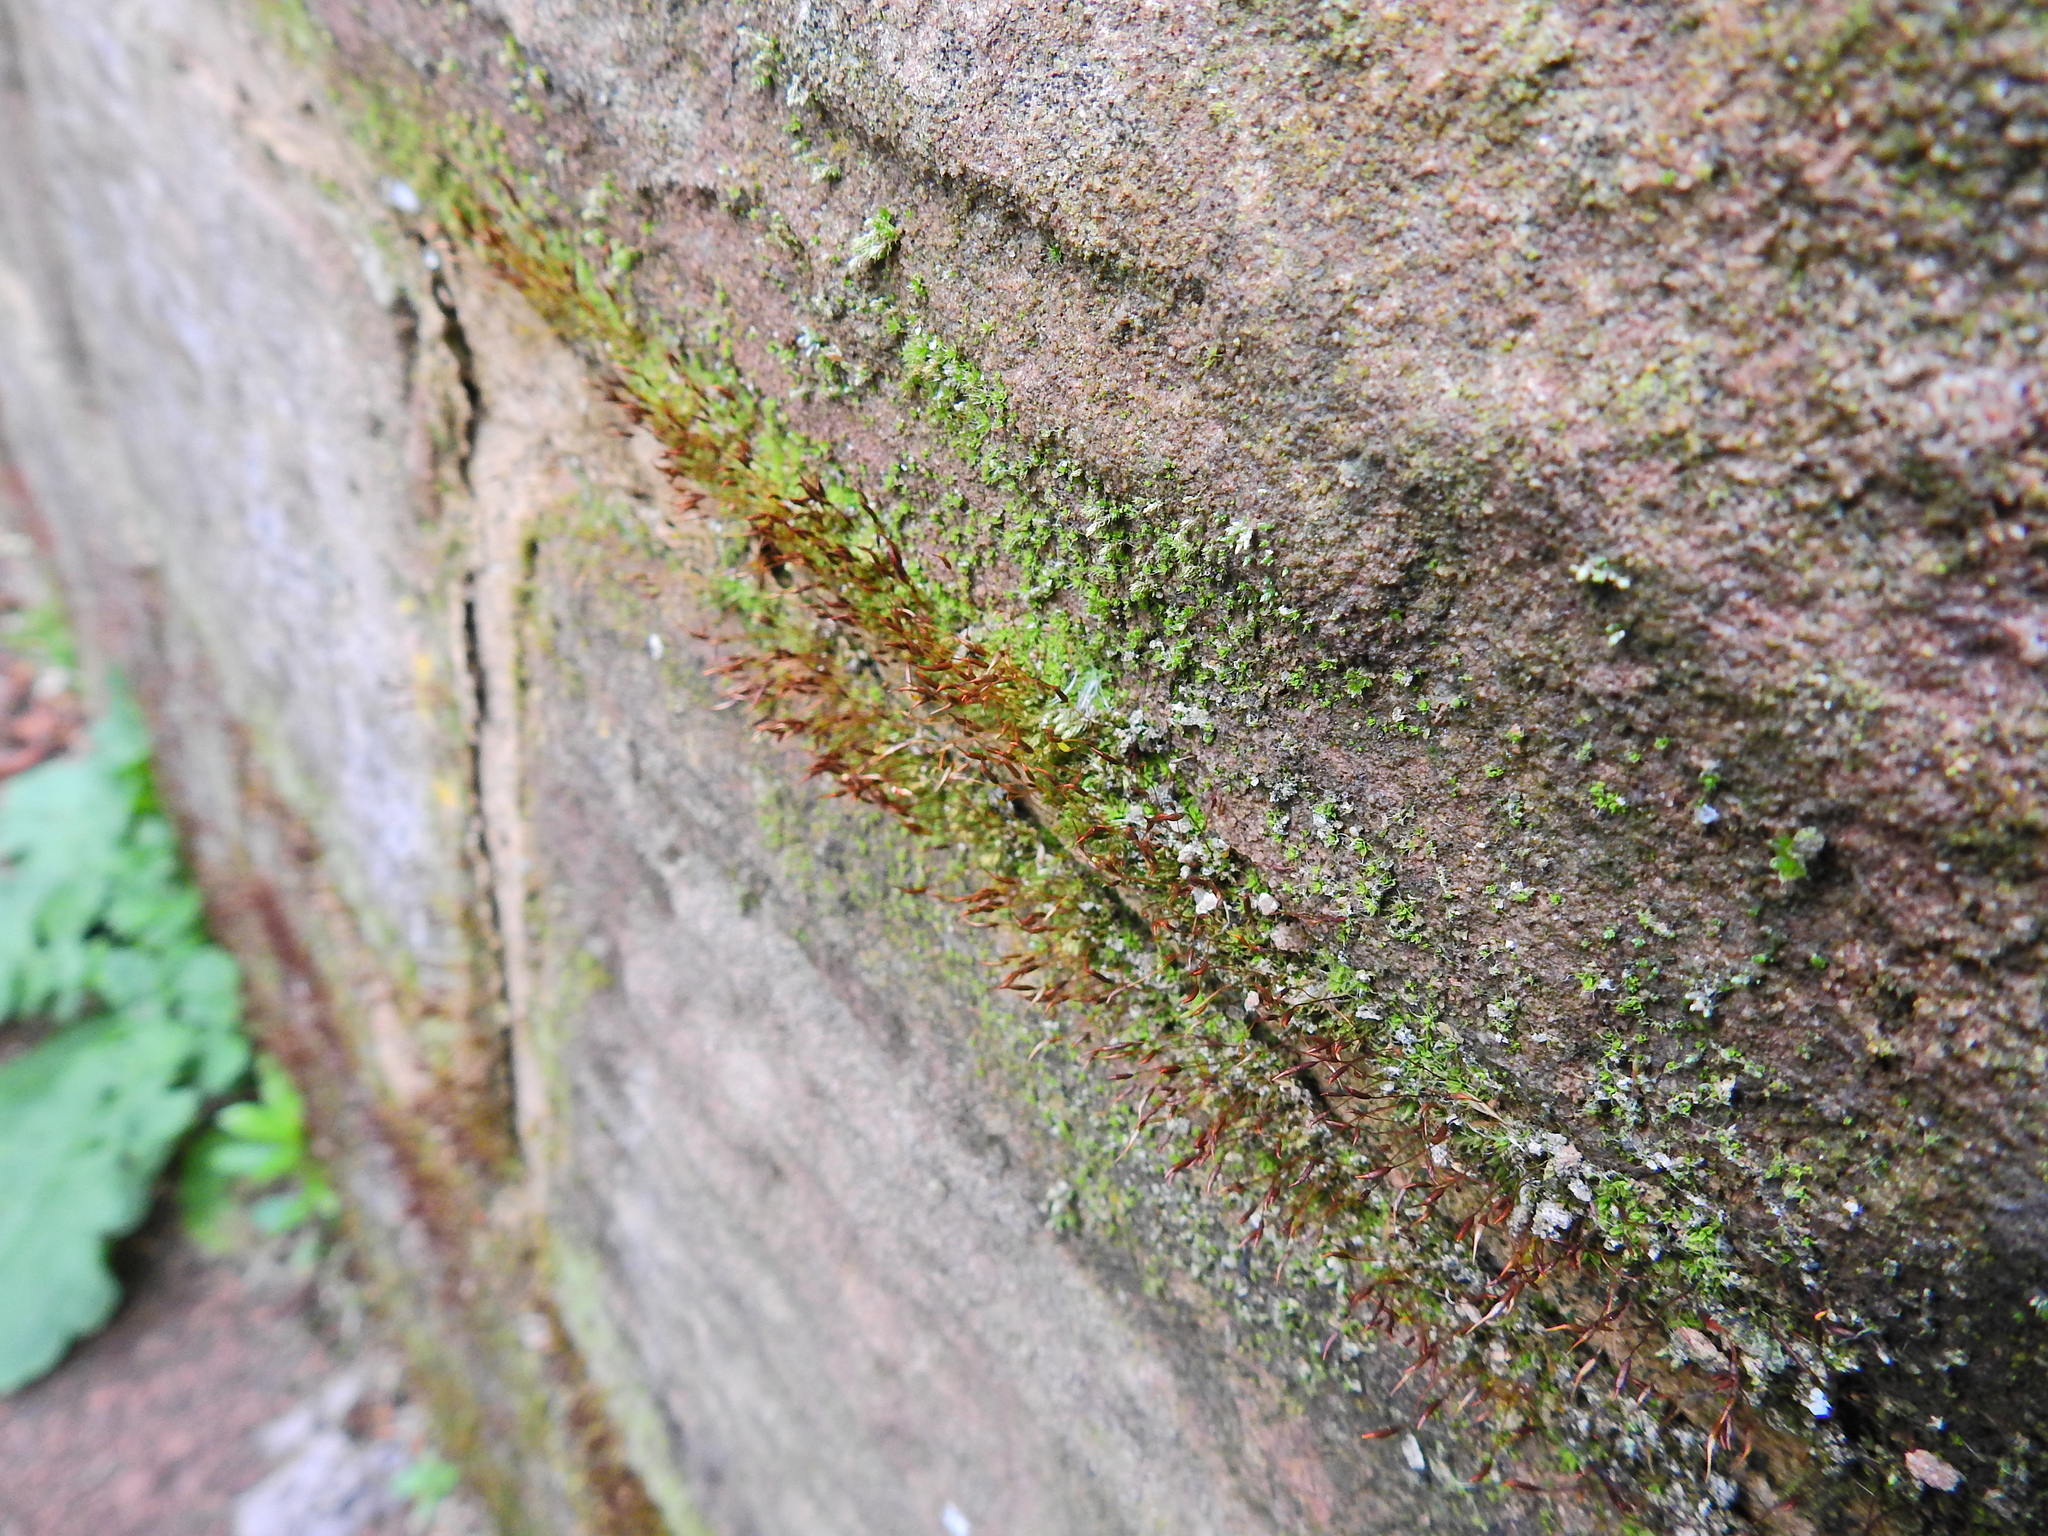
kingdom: Plantae
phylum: Bryophyta
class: Bryopsida
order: Pottiales
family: Pottiaceae
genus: Tortula
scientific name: Tortula muralis
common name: Wall screw-moss
